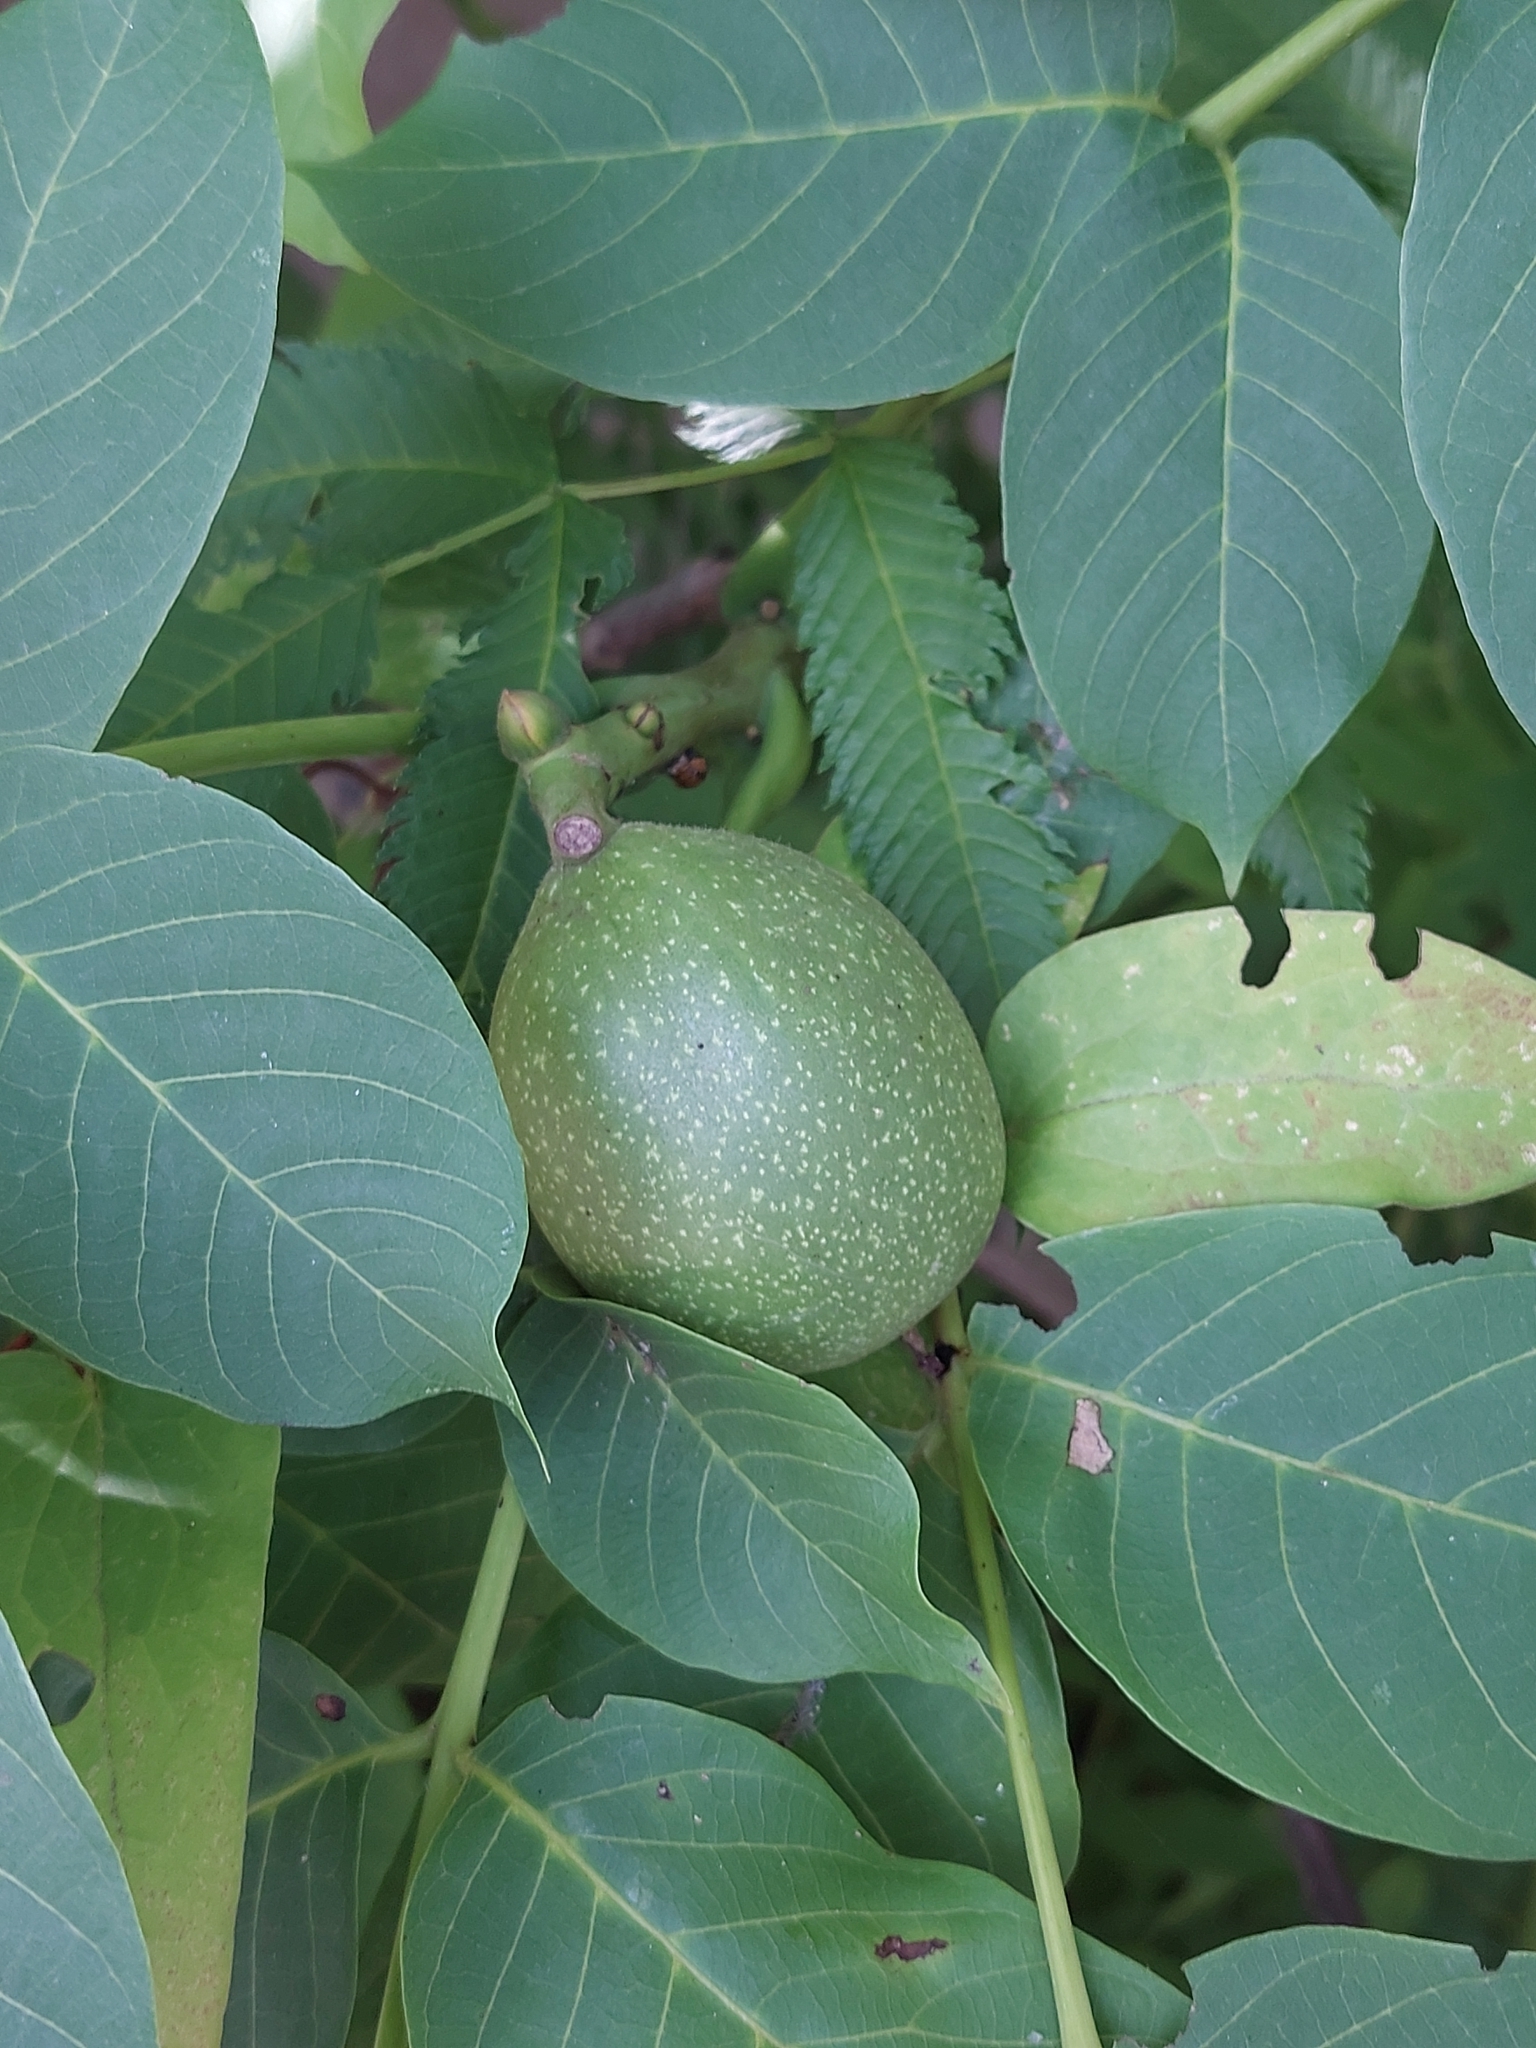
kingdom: Plantae
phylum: Tracheophyta
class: Magnoliopsida
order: Fagales
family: Juglandaceae
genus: Juglans
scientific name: Juglans regia
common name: Walnut
